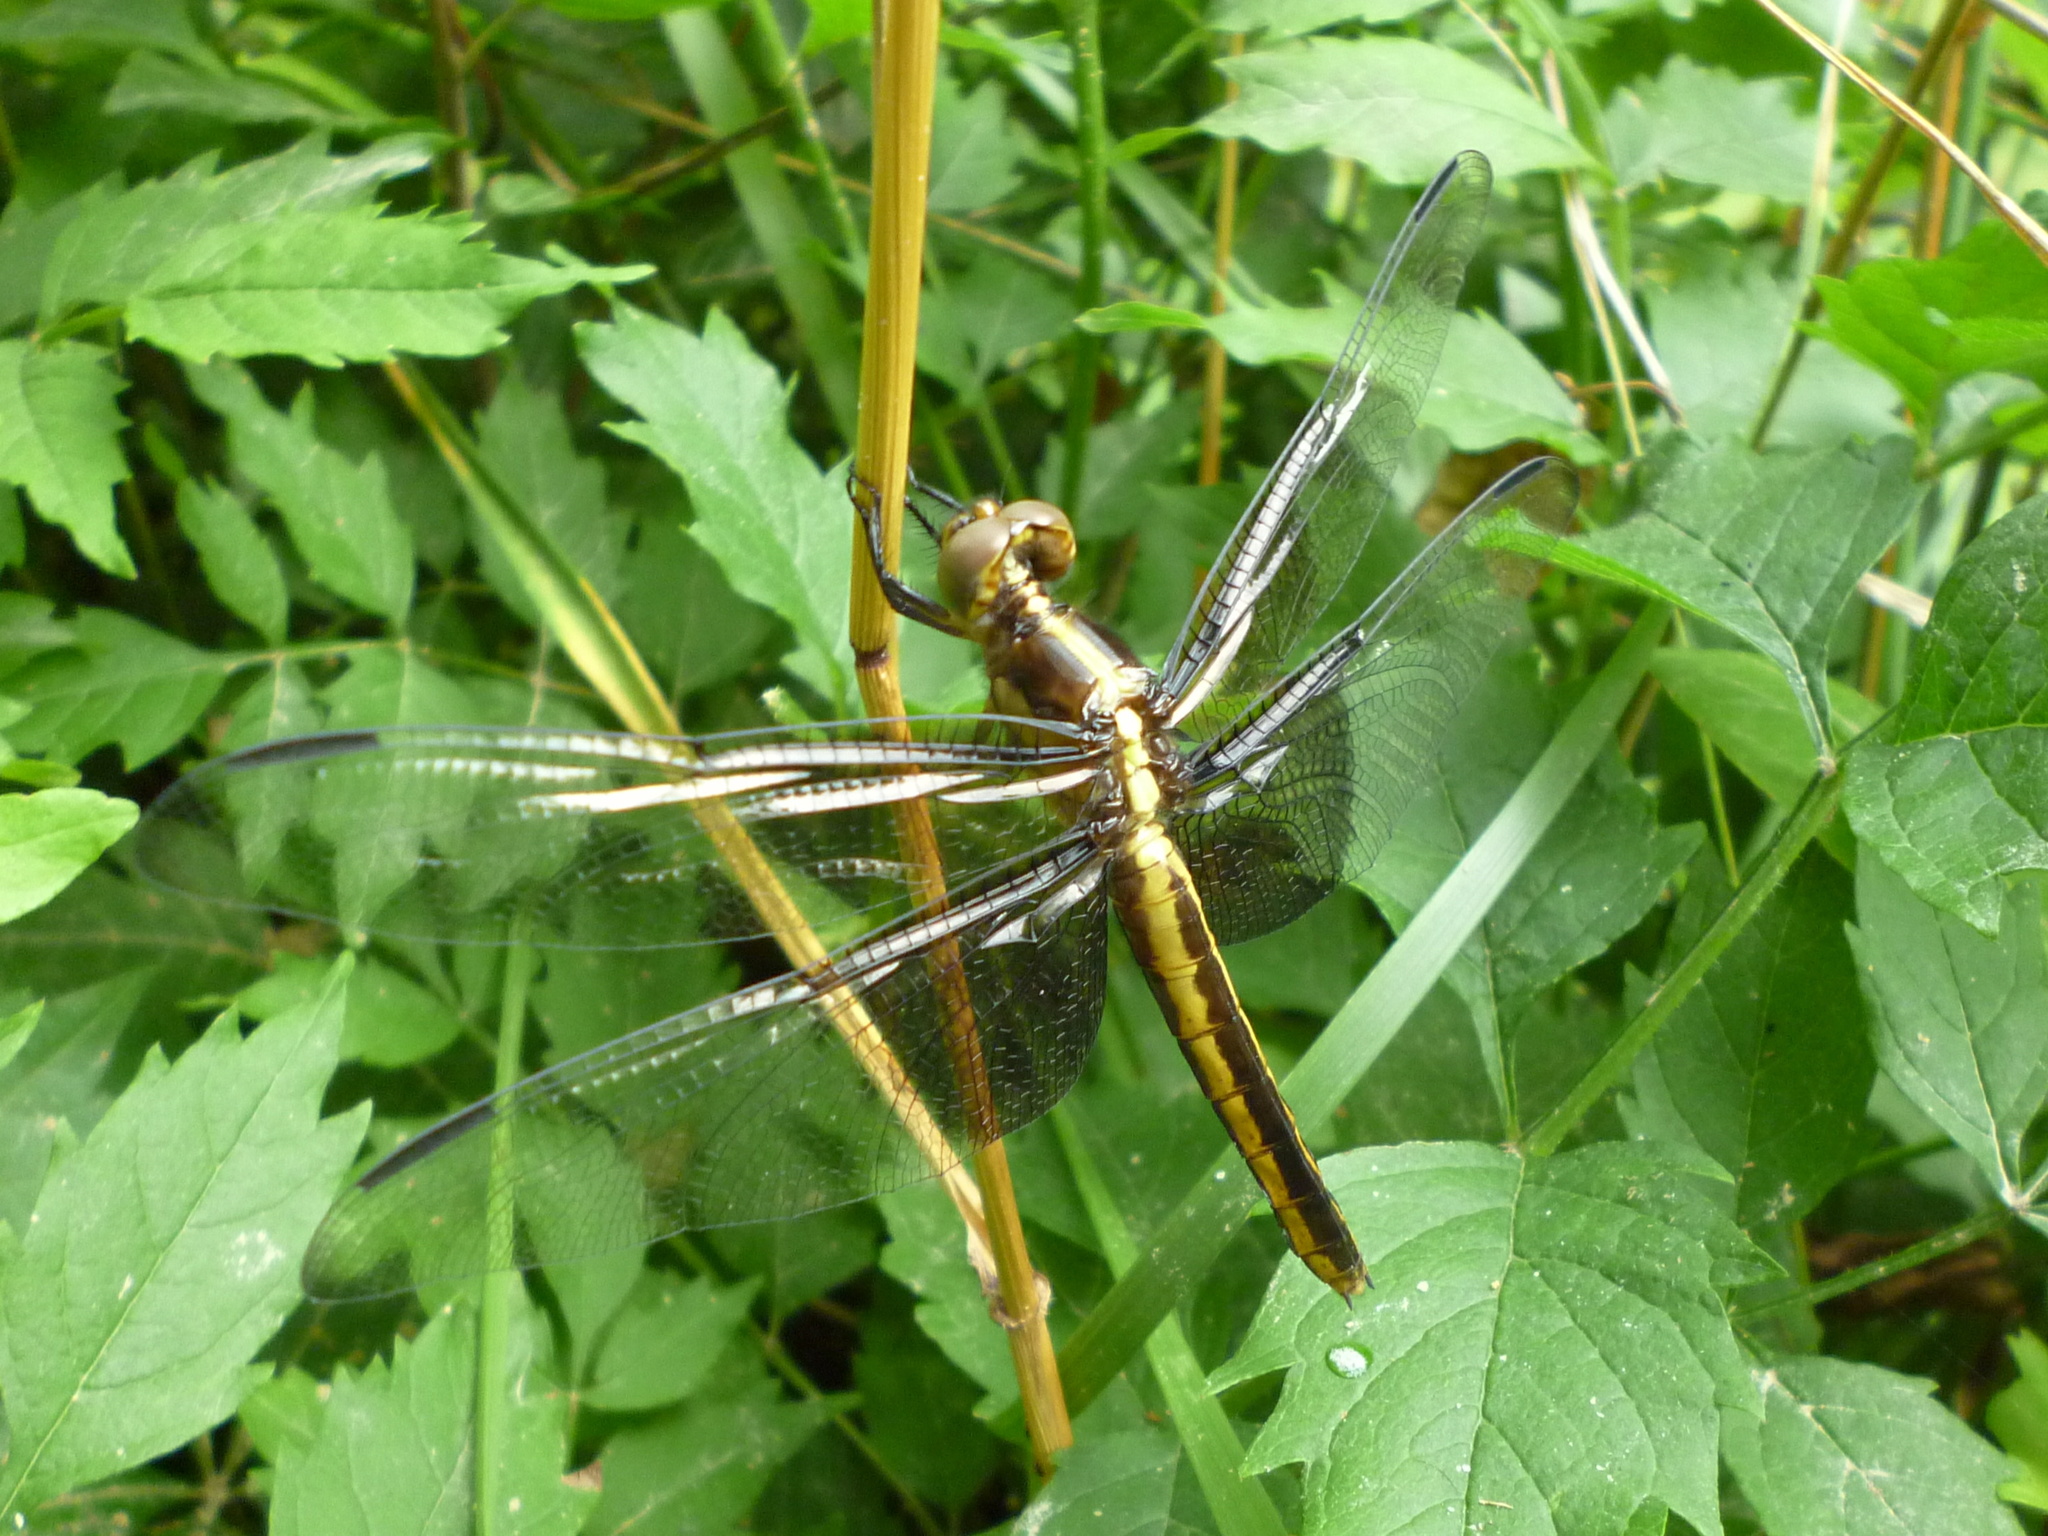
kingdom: Animalia
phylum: Arthropoda
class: Insecta
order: Odonata
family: Libellulidae
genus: Libellula
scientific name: Libellula luctuosa
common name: Widow skimmer
